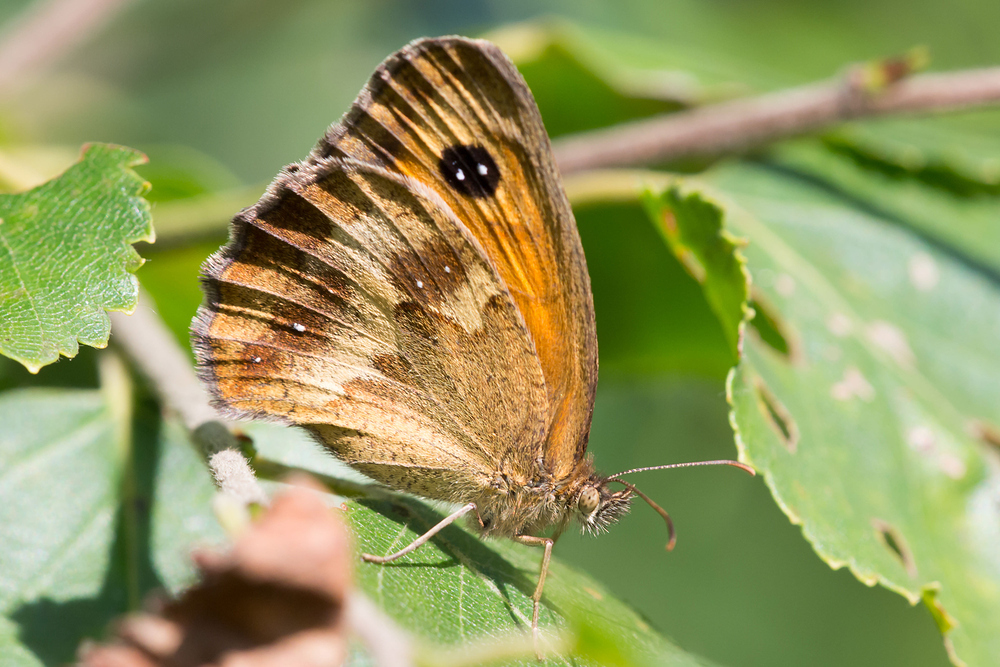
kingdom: Animalia
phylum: Arthropoda
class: Insecta
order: Lepidoptera
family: Nymphalidae
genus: Pyronia
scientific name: Pyronia tithonus
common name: Gatekeeper
